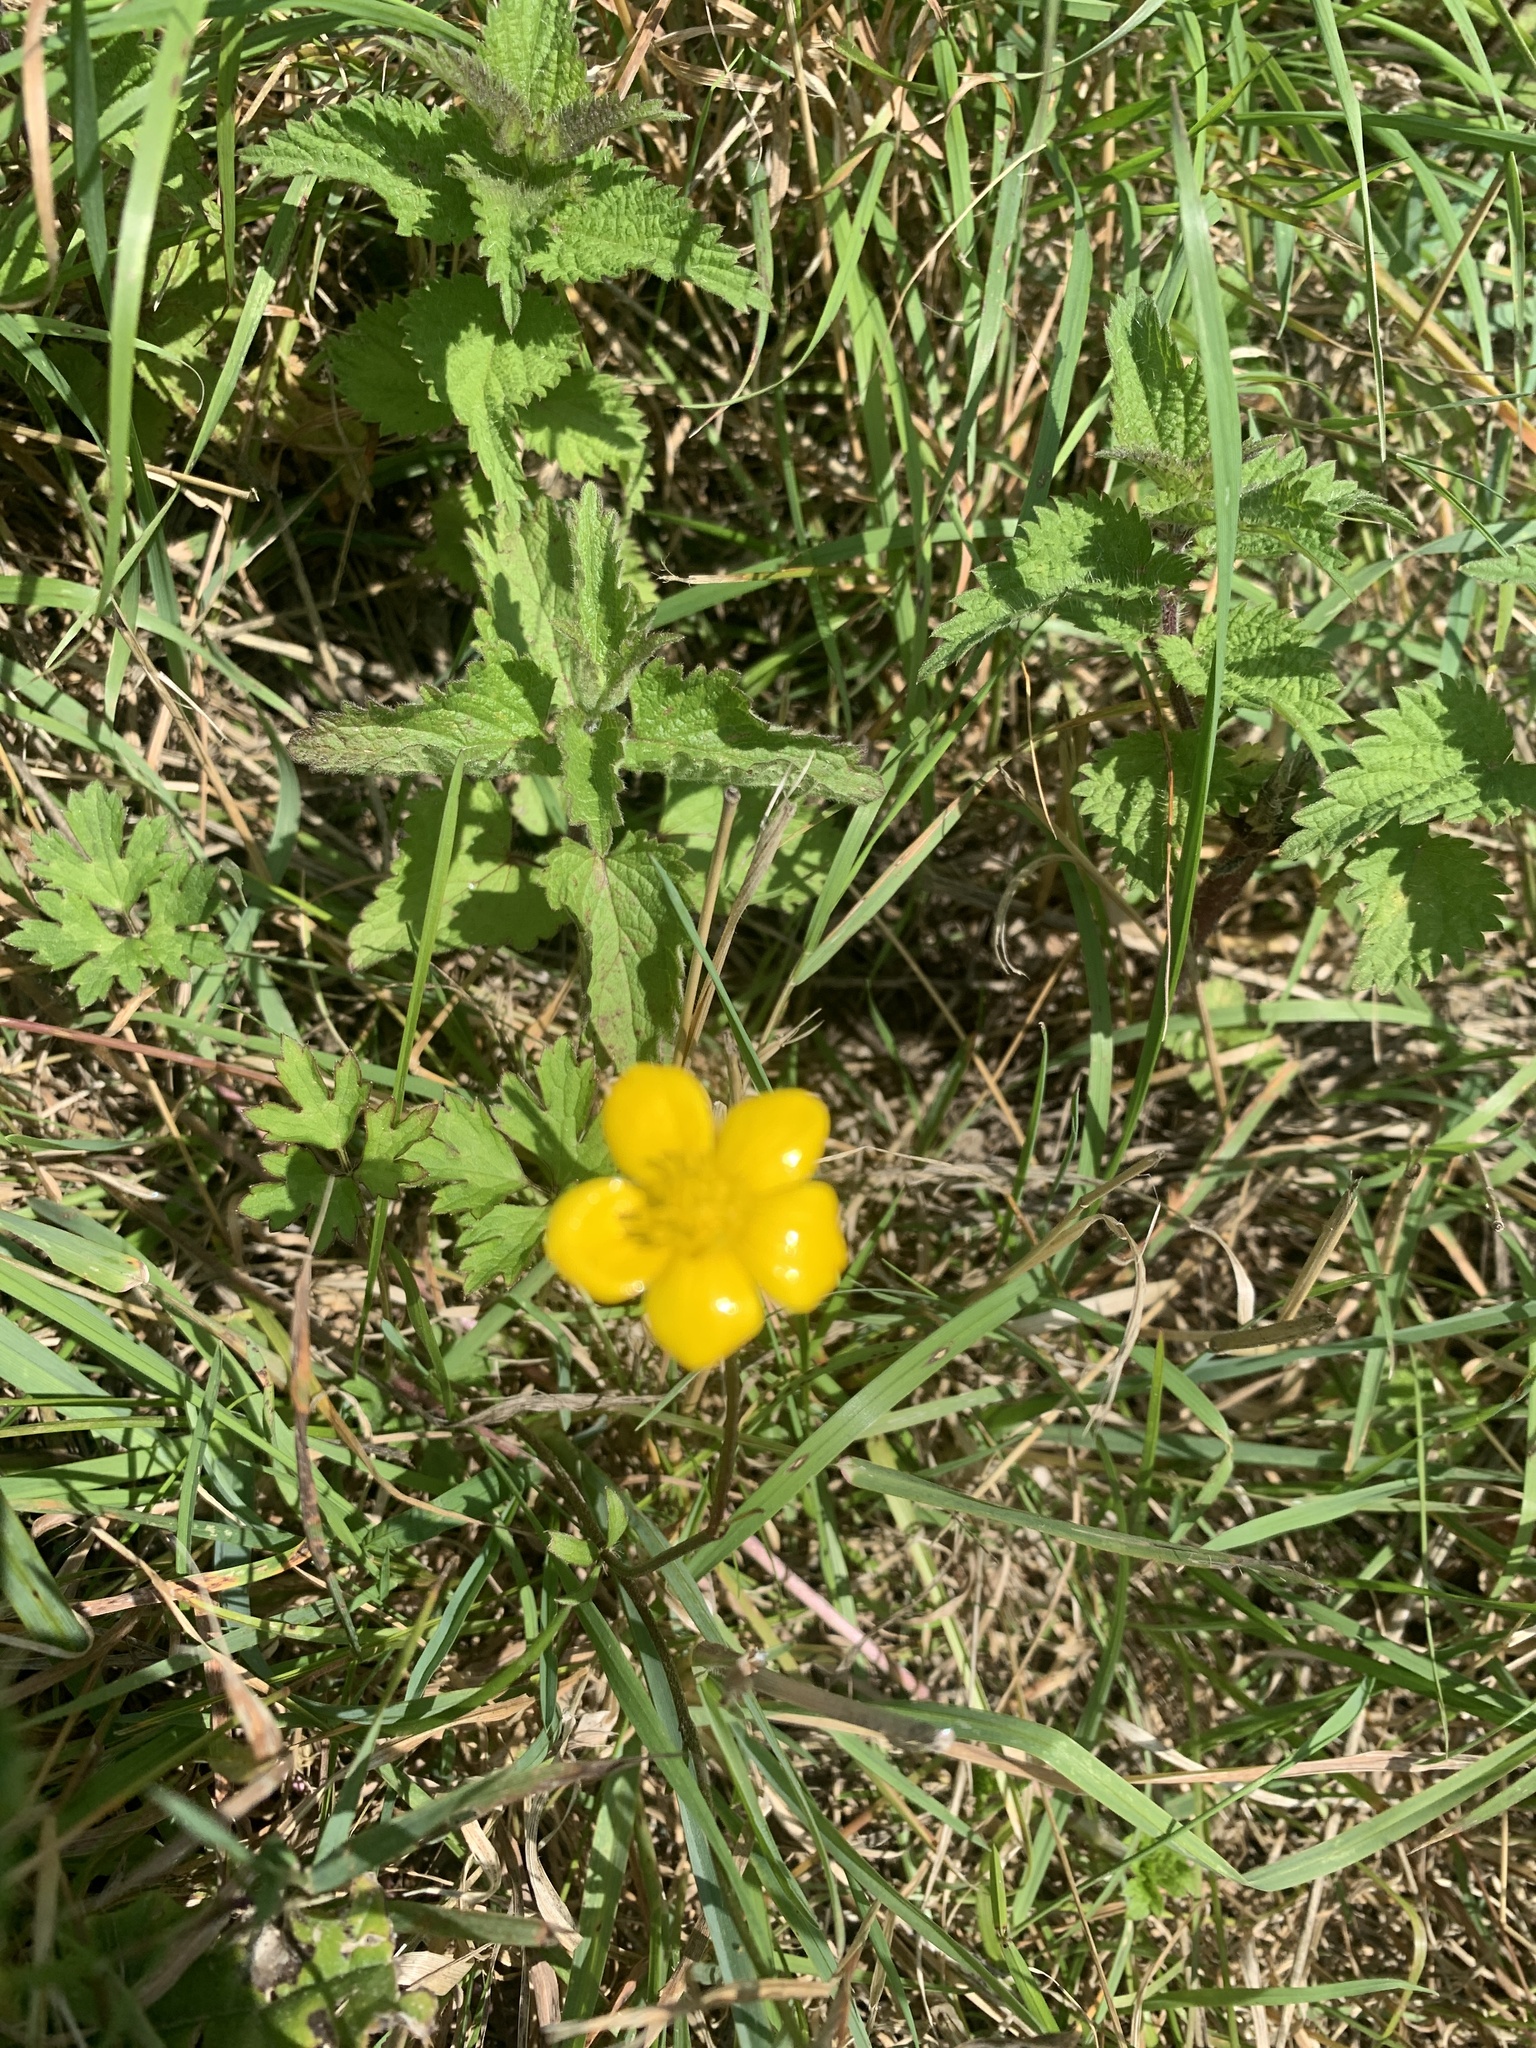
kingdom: Plantae
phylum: Tracheophyta
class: Magnoliopsida
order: Ranunculales
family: Ranunculaceae
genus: Ranunculus
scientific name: Ranunculus acris
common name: Meadow buttercup
